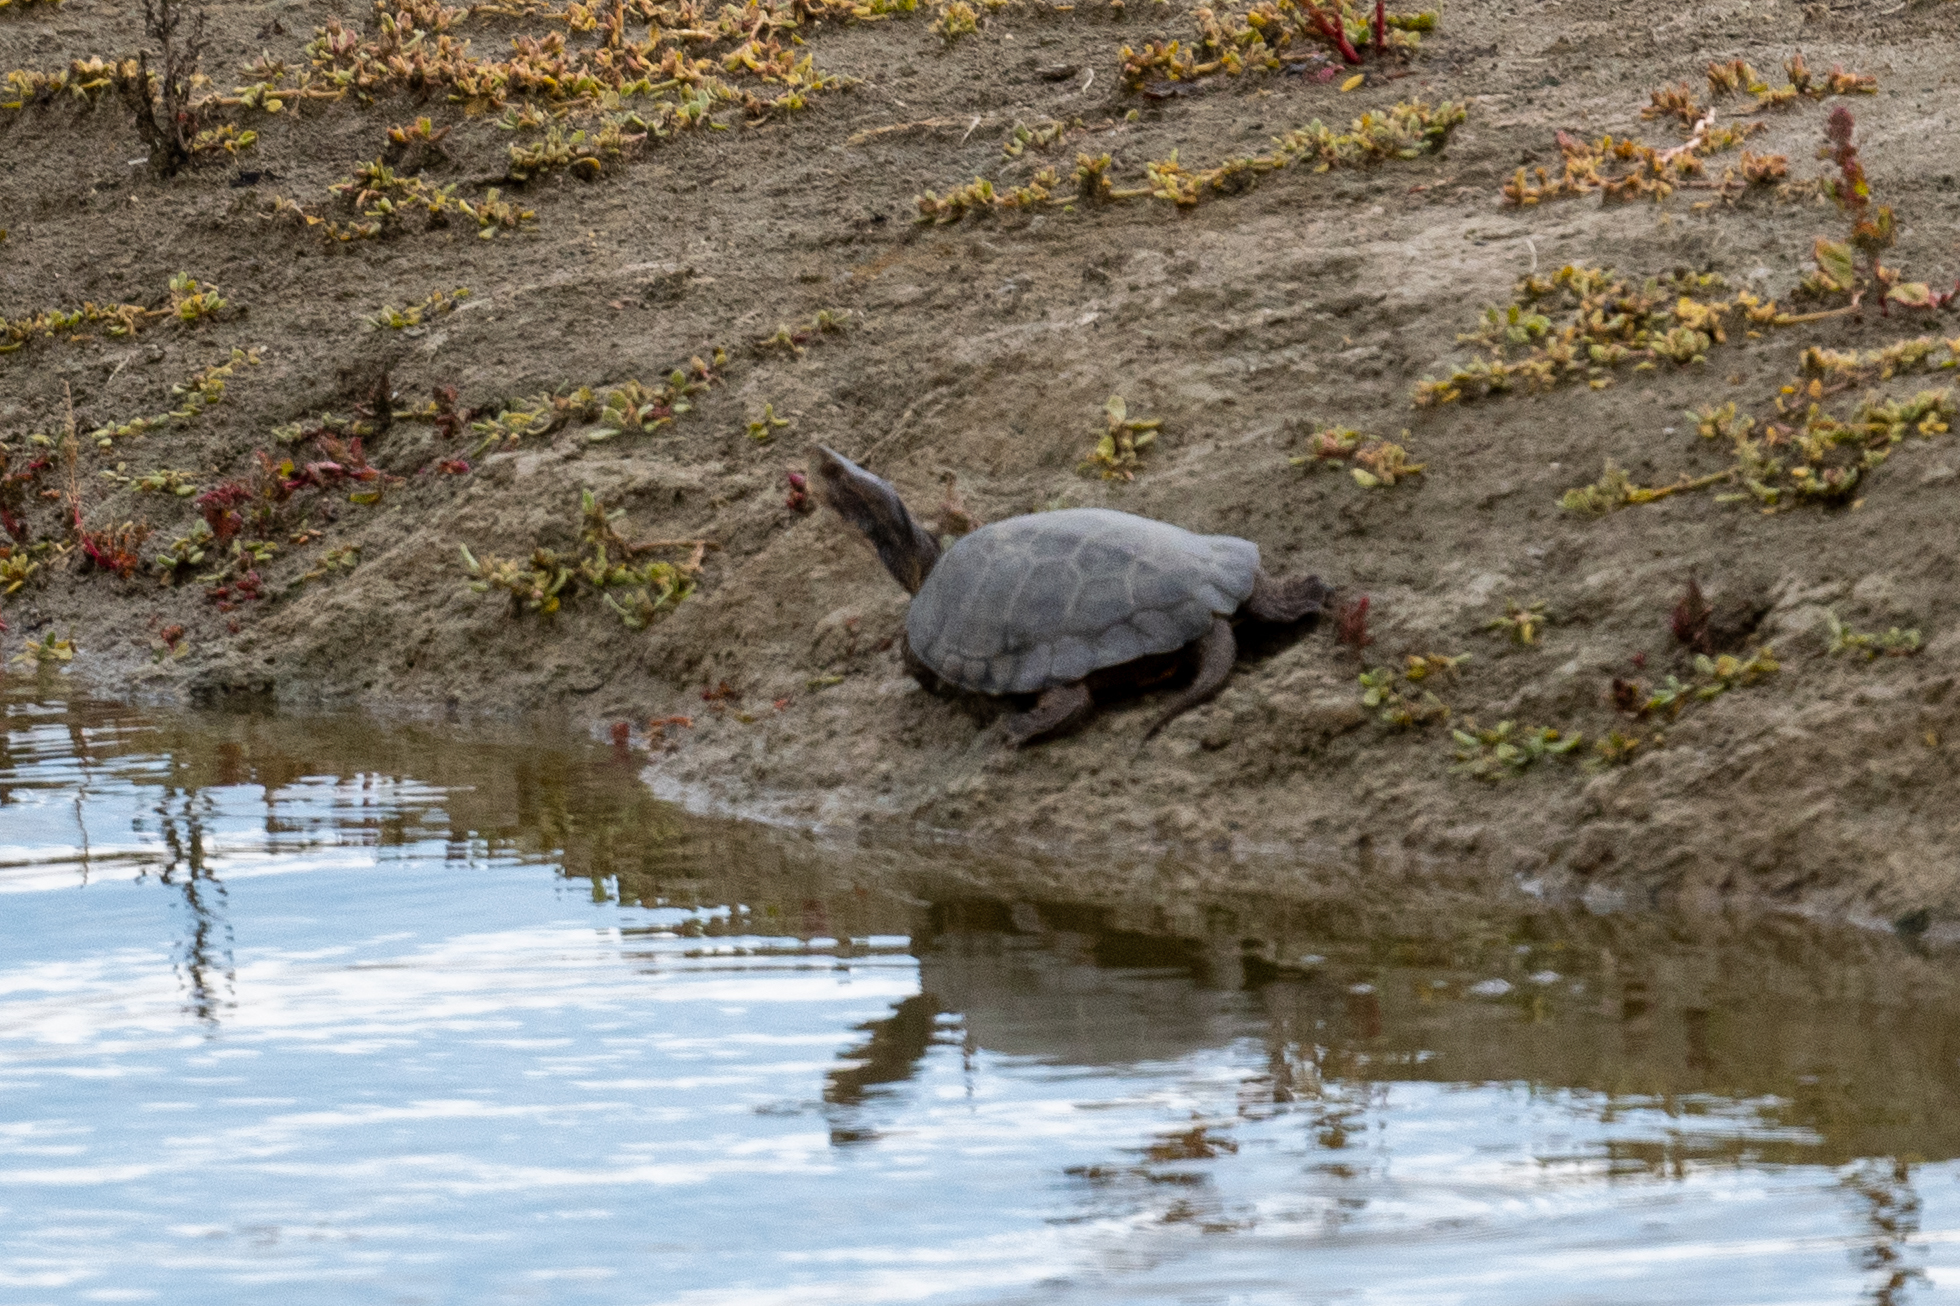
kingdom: Animalia
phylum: Chordata
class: Testudines
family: Emydidae
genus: Actinemys
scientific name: Actinemys marmorata
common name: Western pond turtle
